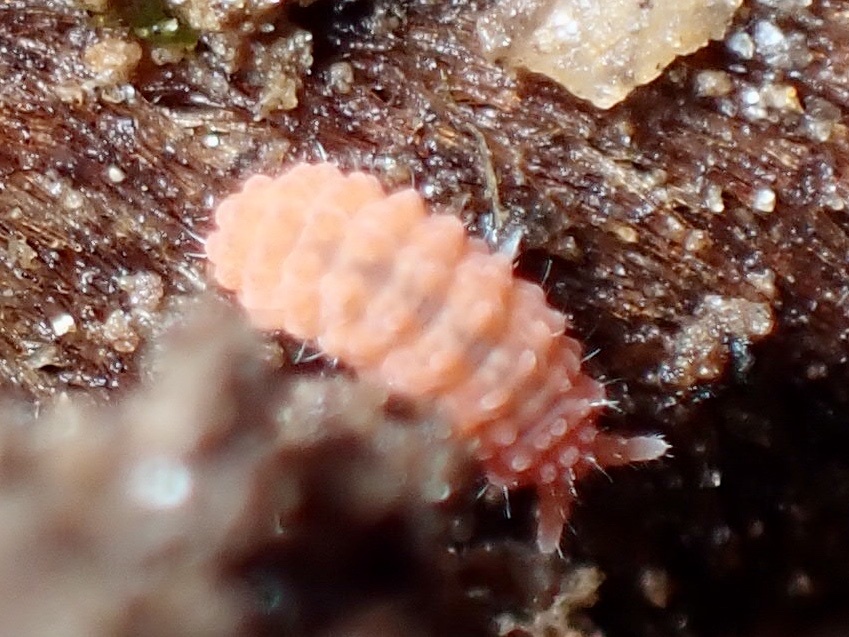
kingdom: Animalia
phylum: Arthropoda
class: Collembola
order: Poduromorpha
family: Neanuridae
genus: Vitronura
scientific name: Vitronura giselae
